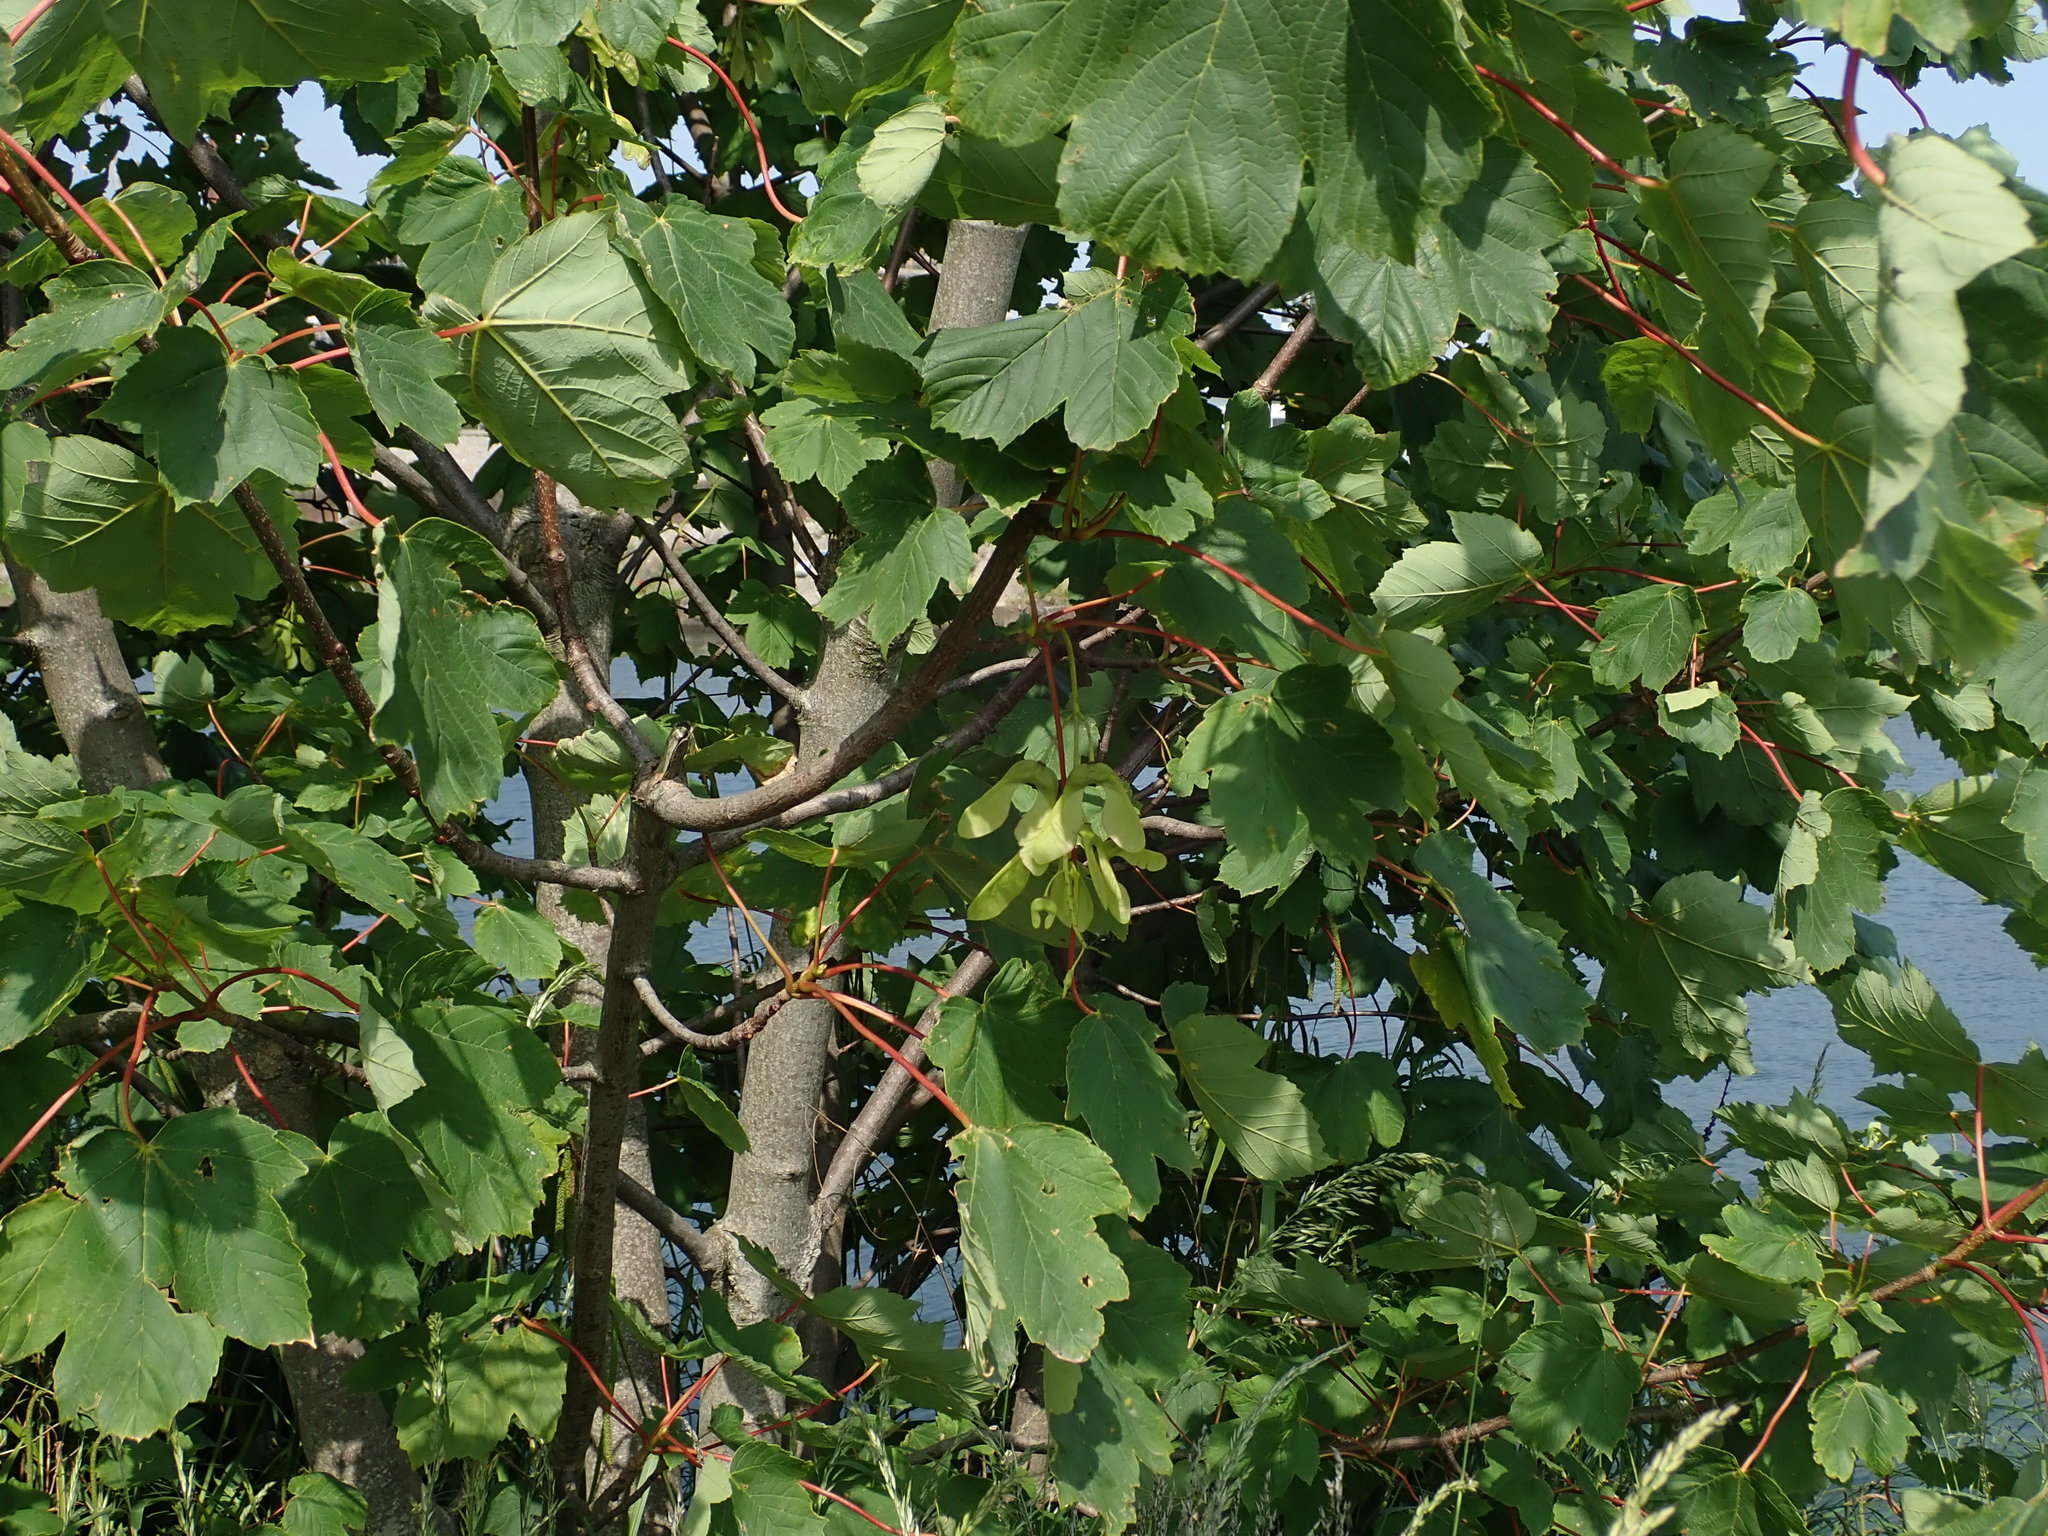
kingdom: Plantae
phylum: Tracheophyta
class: Magnoliopsida
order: Sapindales
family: Sapindaceae
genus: Acer
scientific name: Acer pseudoplatanus
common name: Sycamore
